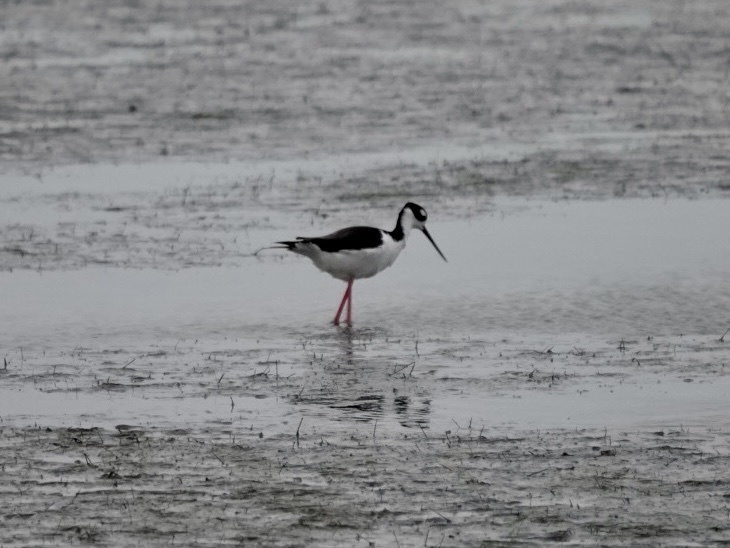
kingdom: Animalia
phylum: Chordata
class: Aves
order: Charadriiformes
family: Recurvirostridae
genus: Himantopus
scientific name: Himantopus mexicanus
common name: Black-necked stilt
